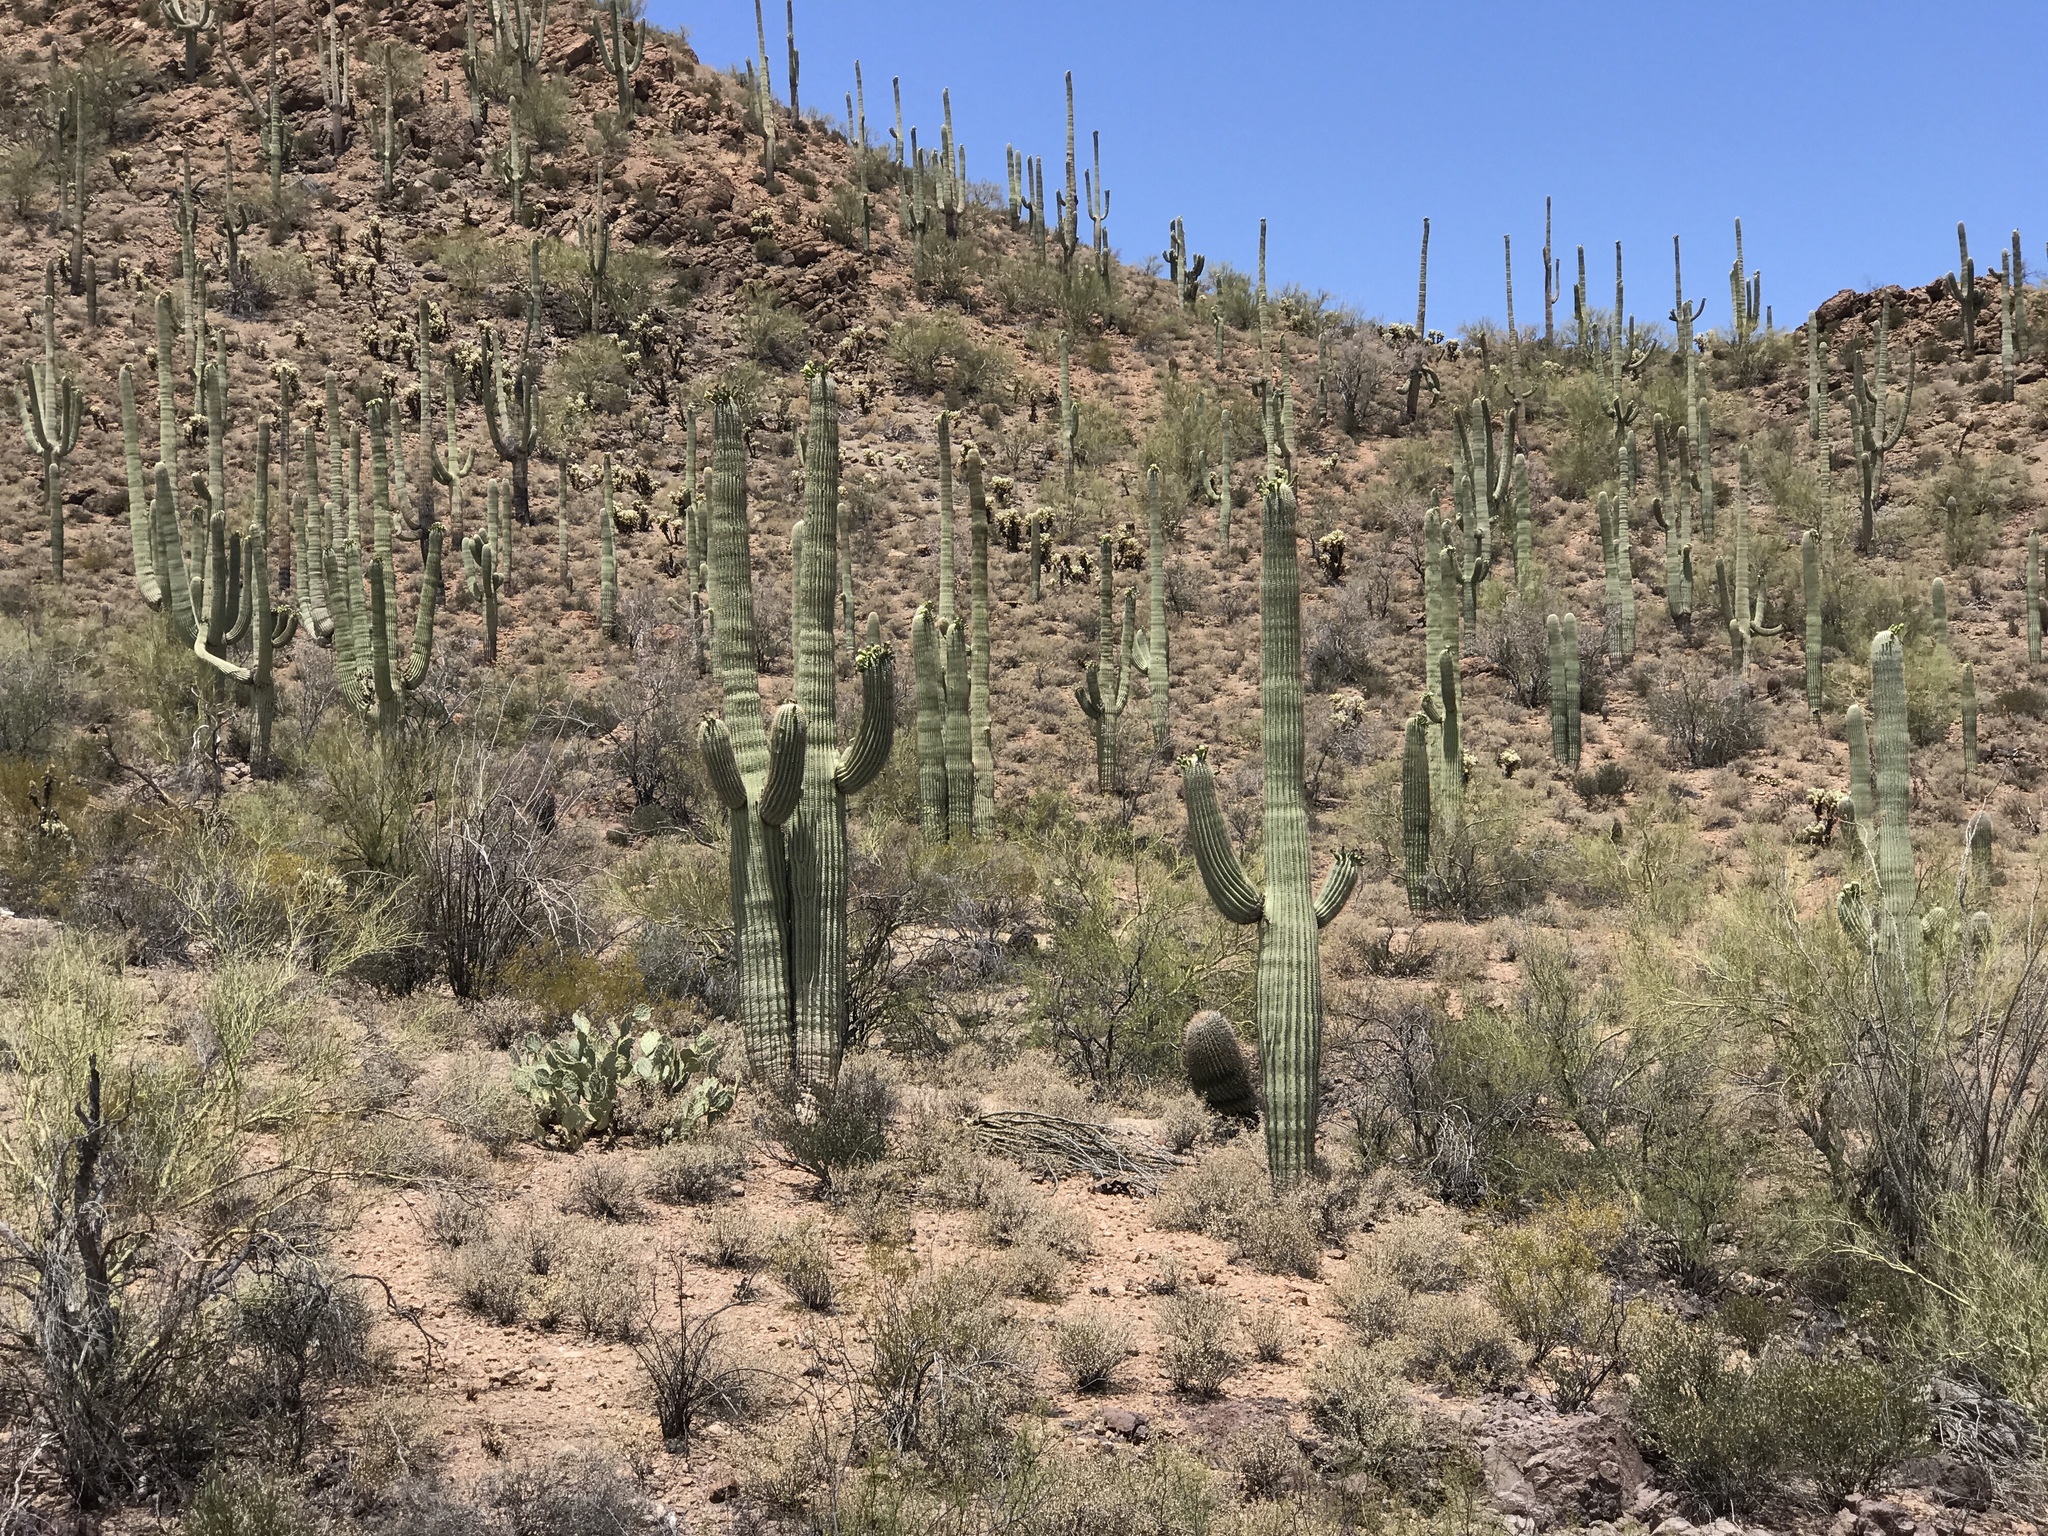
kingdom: Plantae
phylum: Tracheophyta
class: Magnoliopsida
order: Caryophyllales
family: Cactaceae
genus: Carnegiea
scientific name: Carnegiea gigantea
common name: Saguaro
